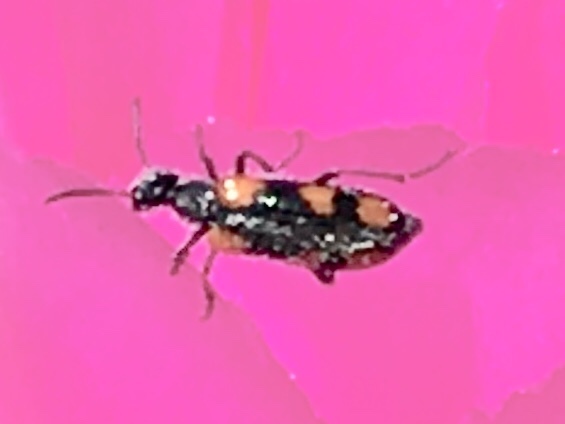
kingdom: Animalia
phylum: Arthropoda
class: Insecta
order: Coleoptera
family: Meloidae
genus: Eupompha
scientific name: Eupompha elegans
